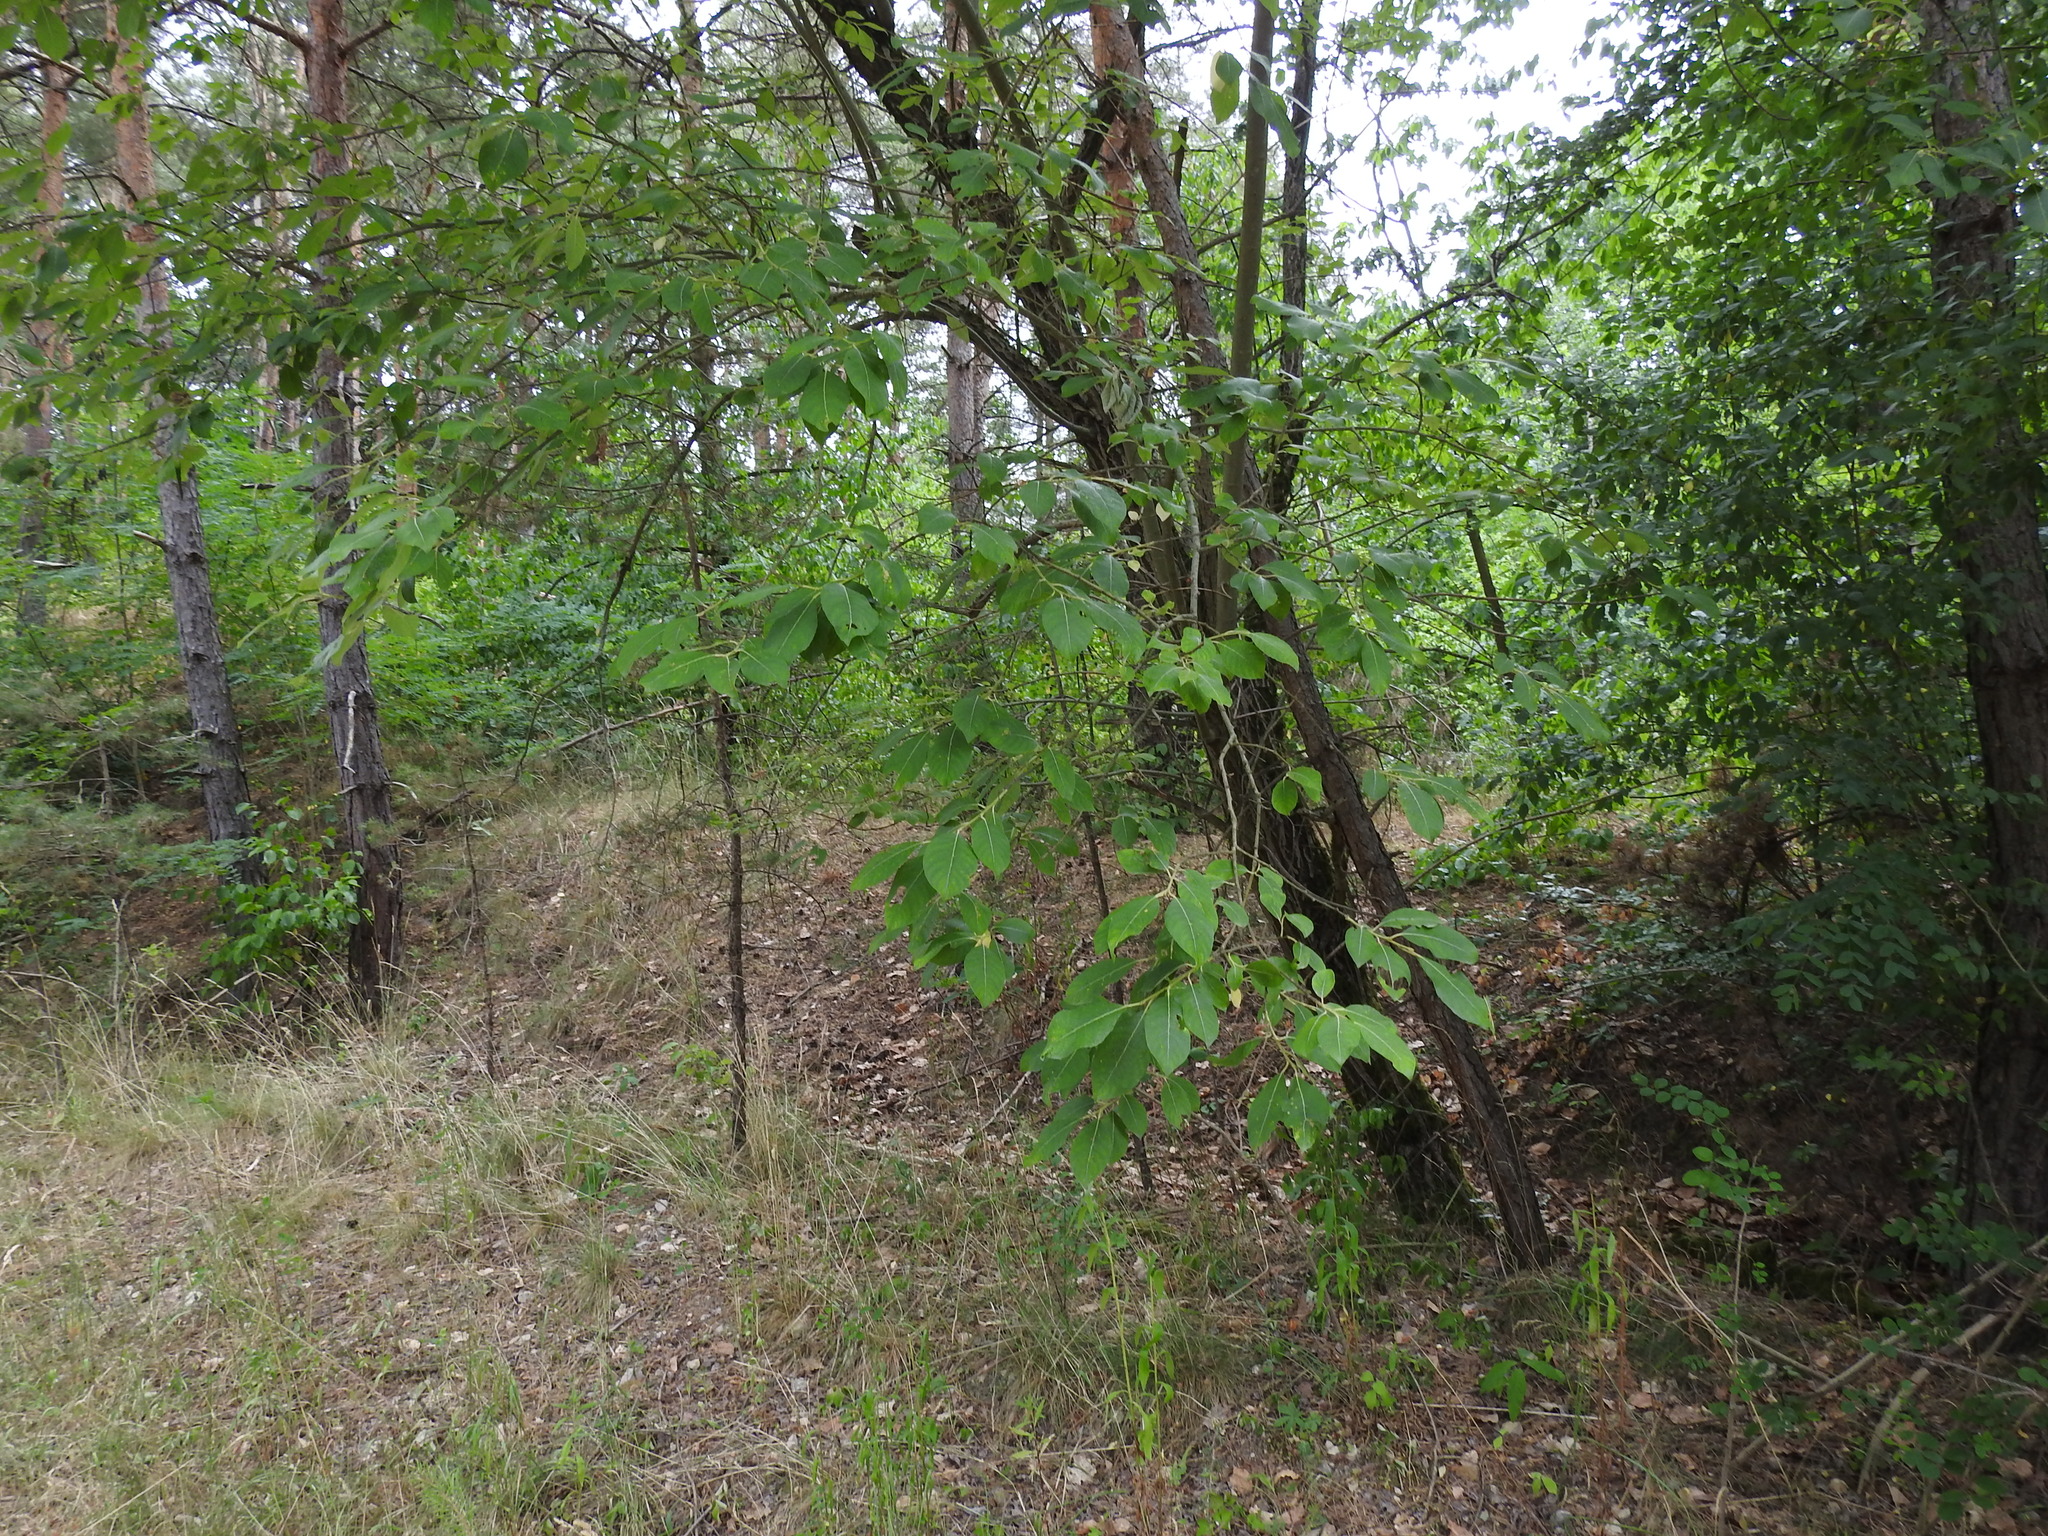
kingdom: Plantae
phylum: Tracheophyta
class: Magnoliopsida
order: Malpighiales
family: Salicaceae
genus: Salix
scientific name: Salix caprea
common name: Goat willow
